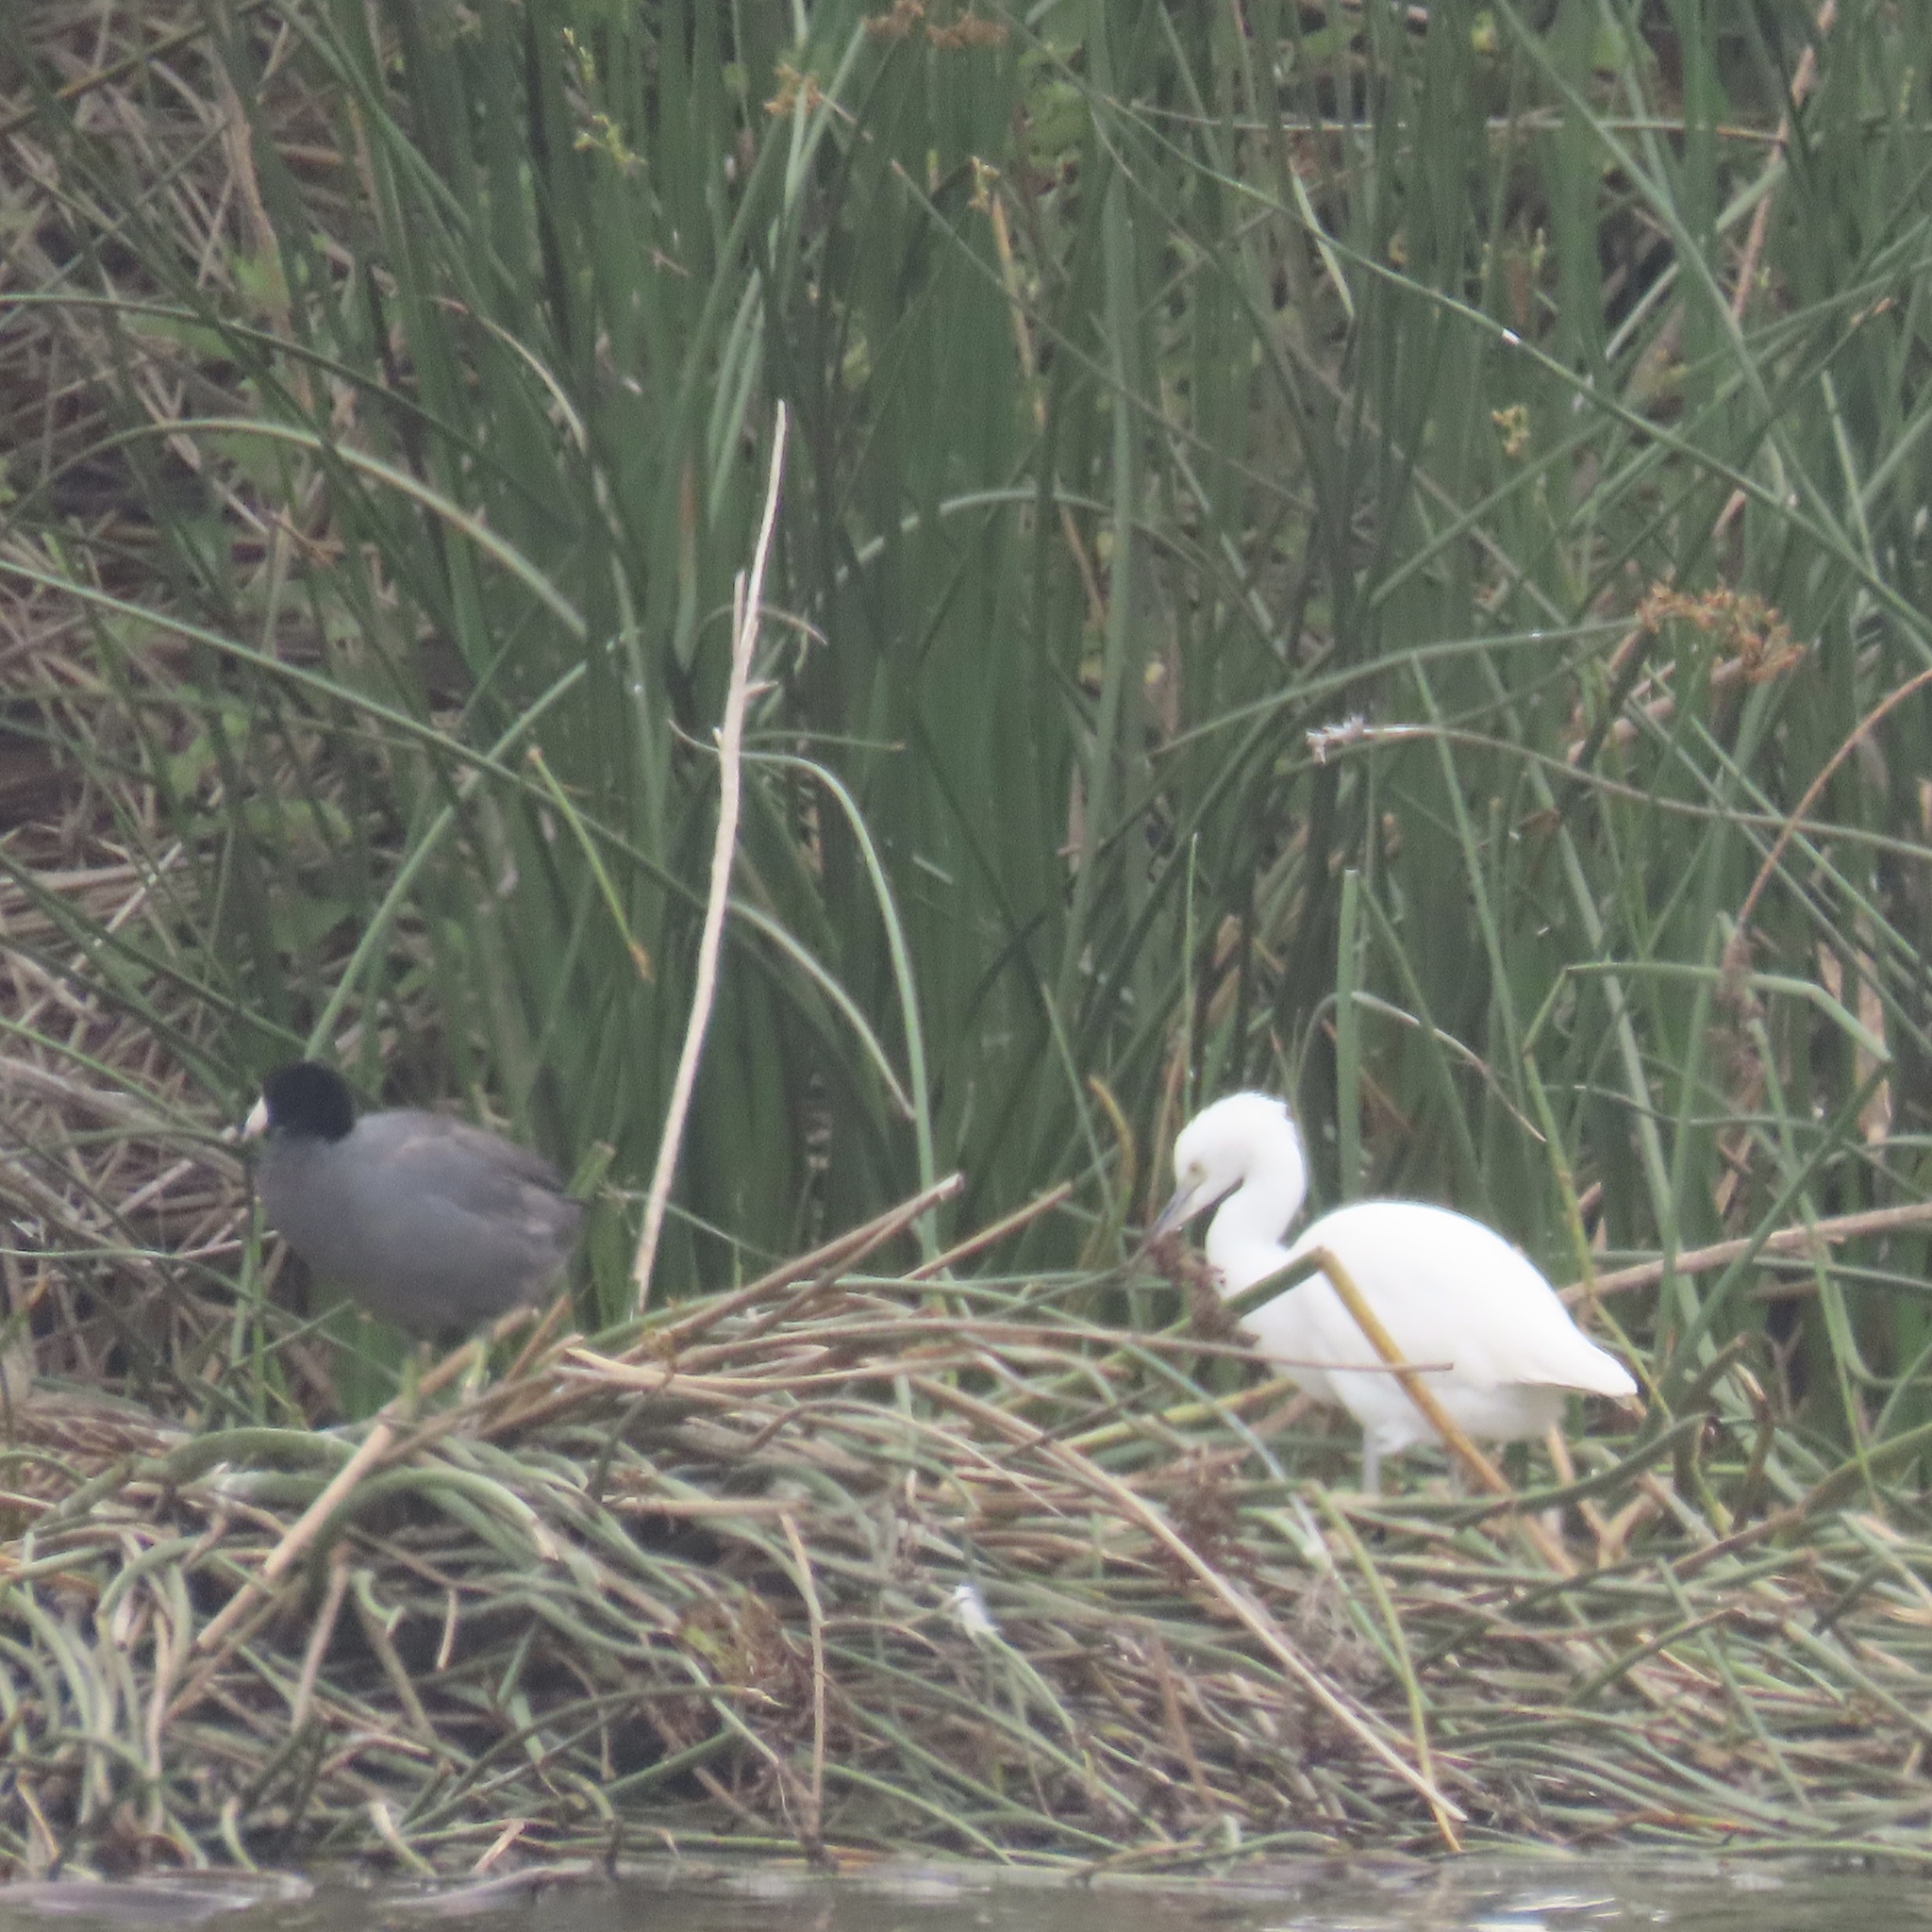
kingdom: Animalia
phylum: Chordata
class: Aves
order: Gruiformes
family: Rallidae
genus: Fulica
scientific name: Fulica americana
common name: American coot
